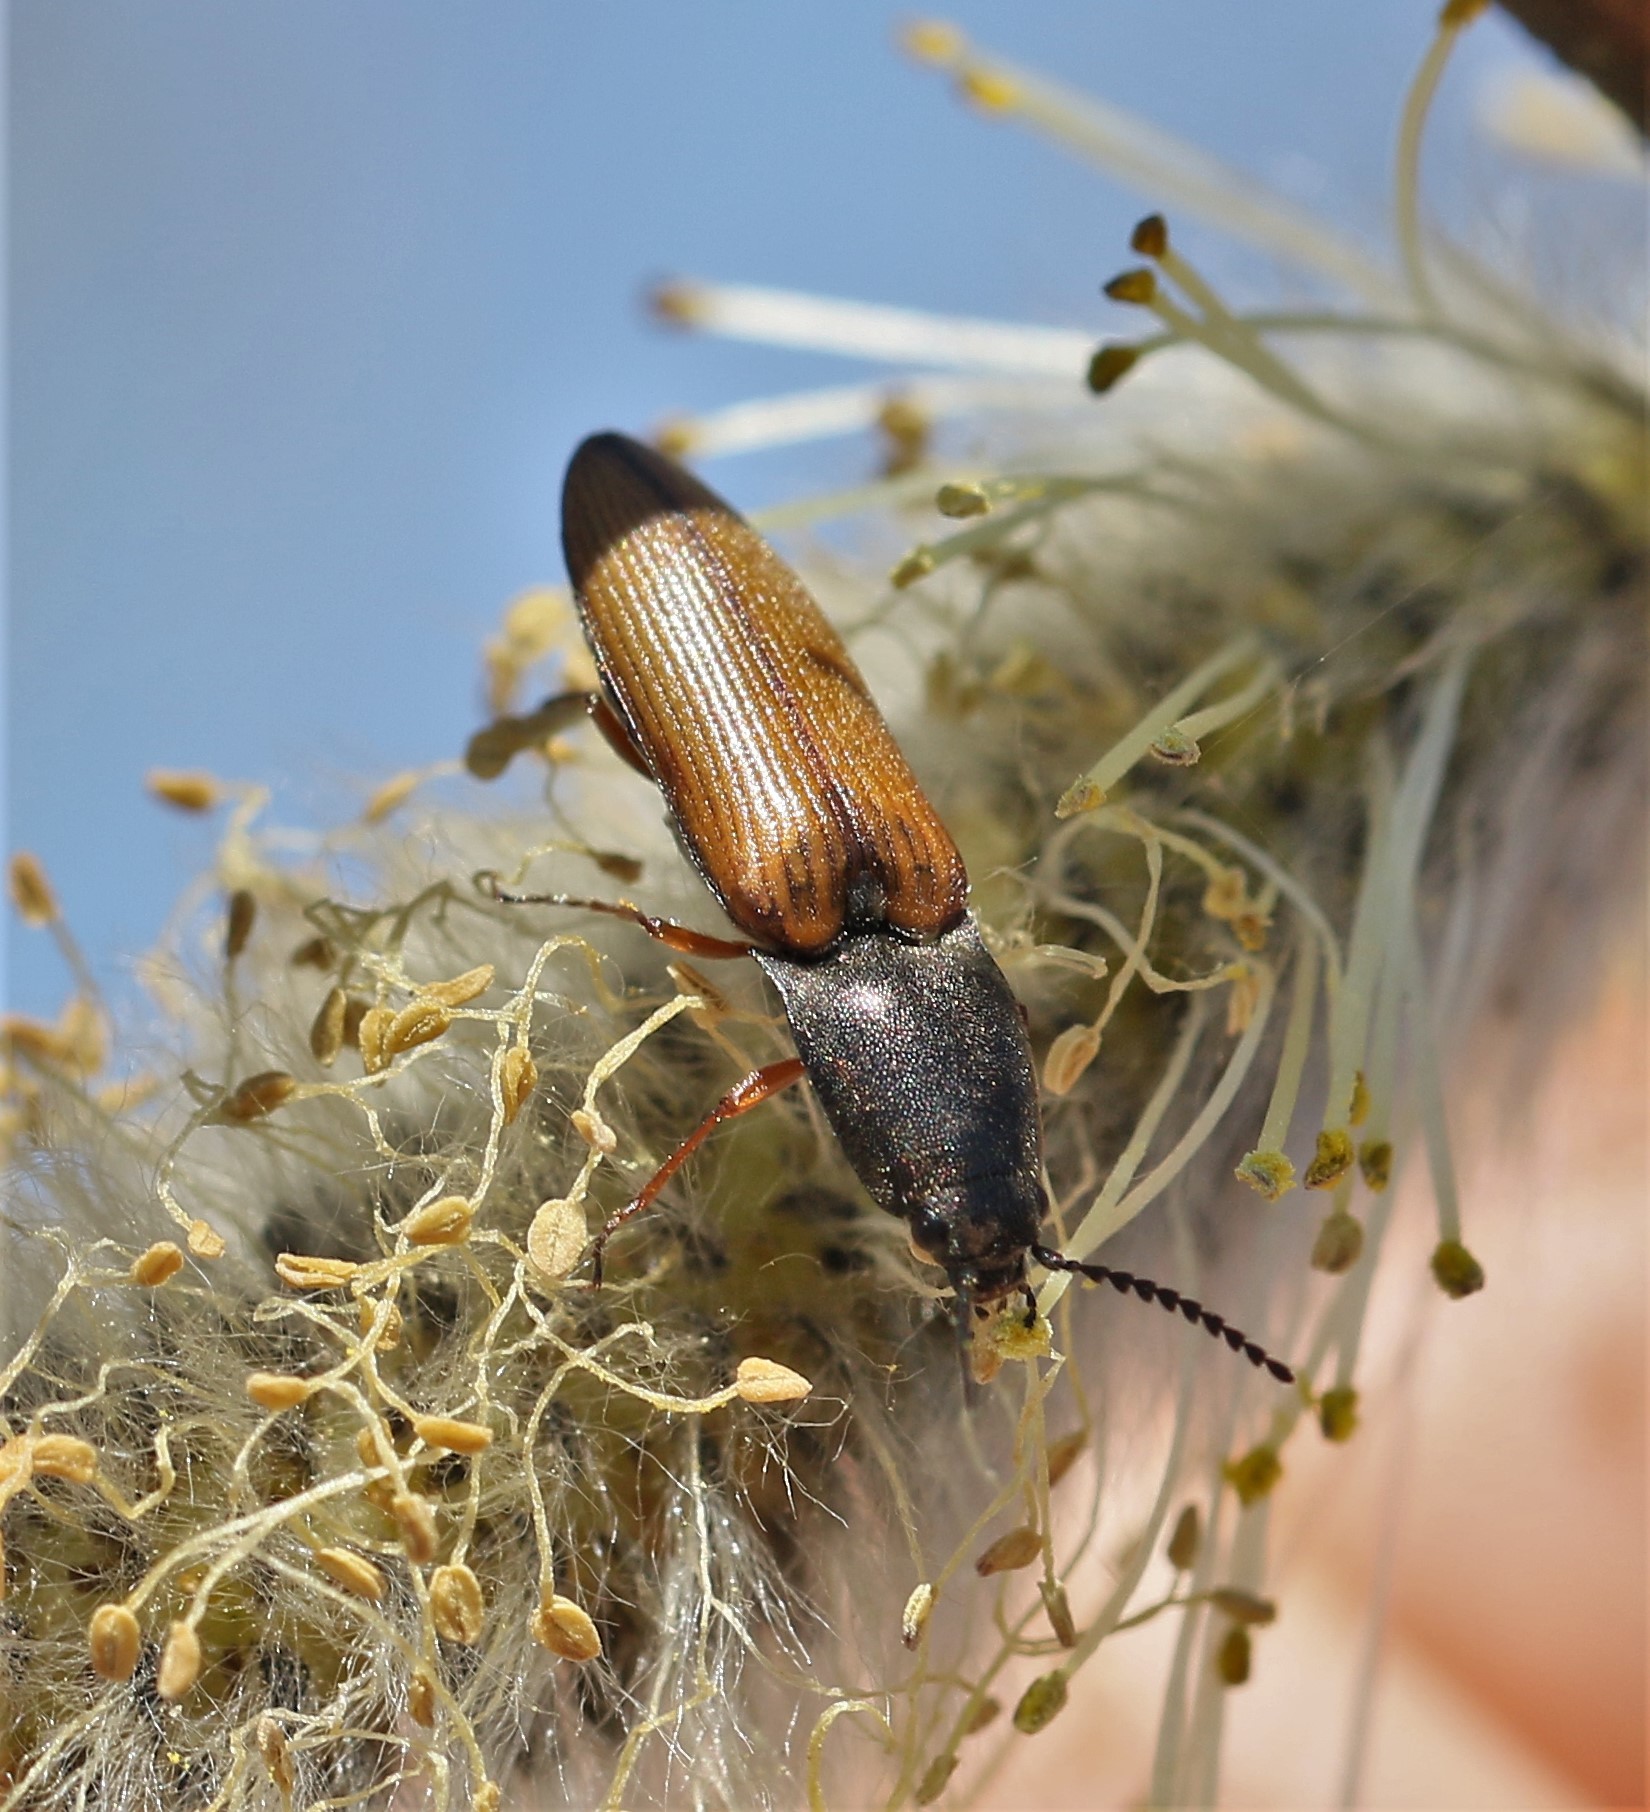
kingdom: Animalia
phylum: Arthropoda
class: Insecta
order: Coleoptera
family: Elateridae
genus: Corymbitodes
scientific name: Corymbitodes tarsalis
